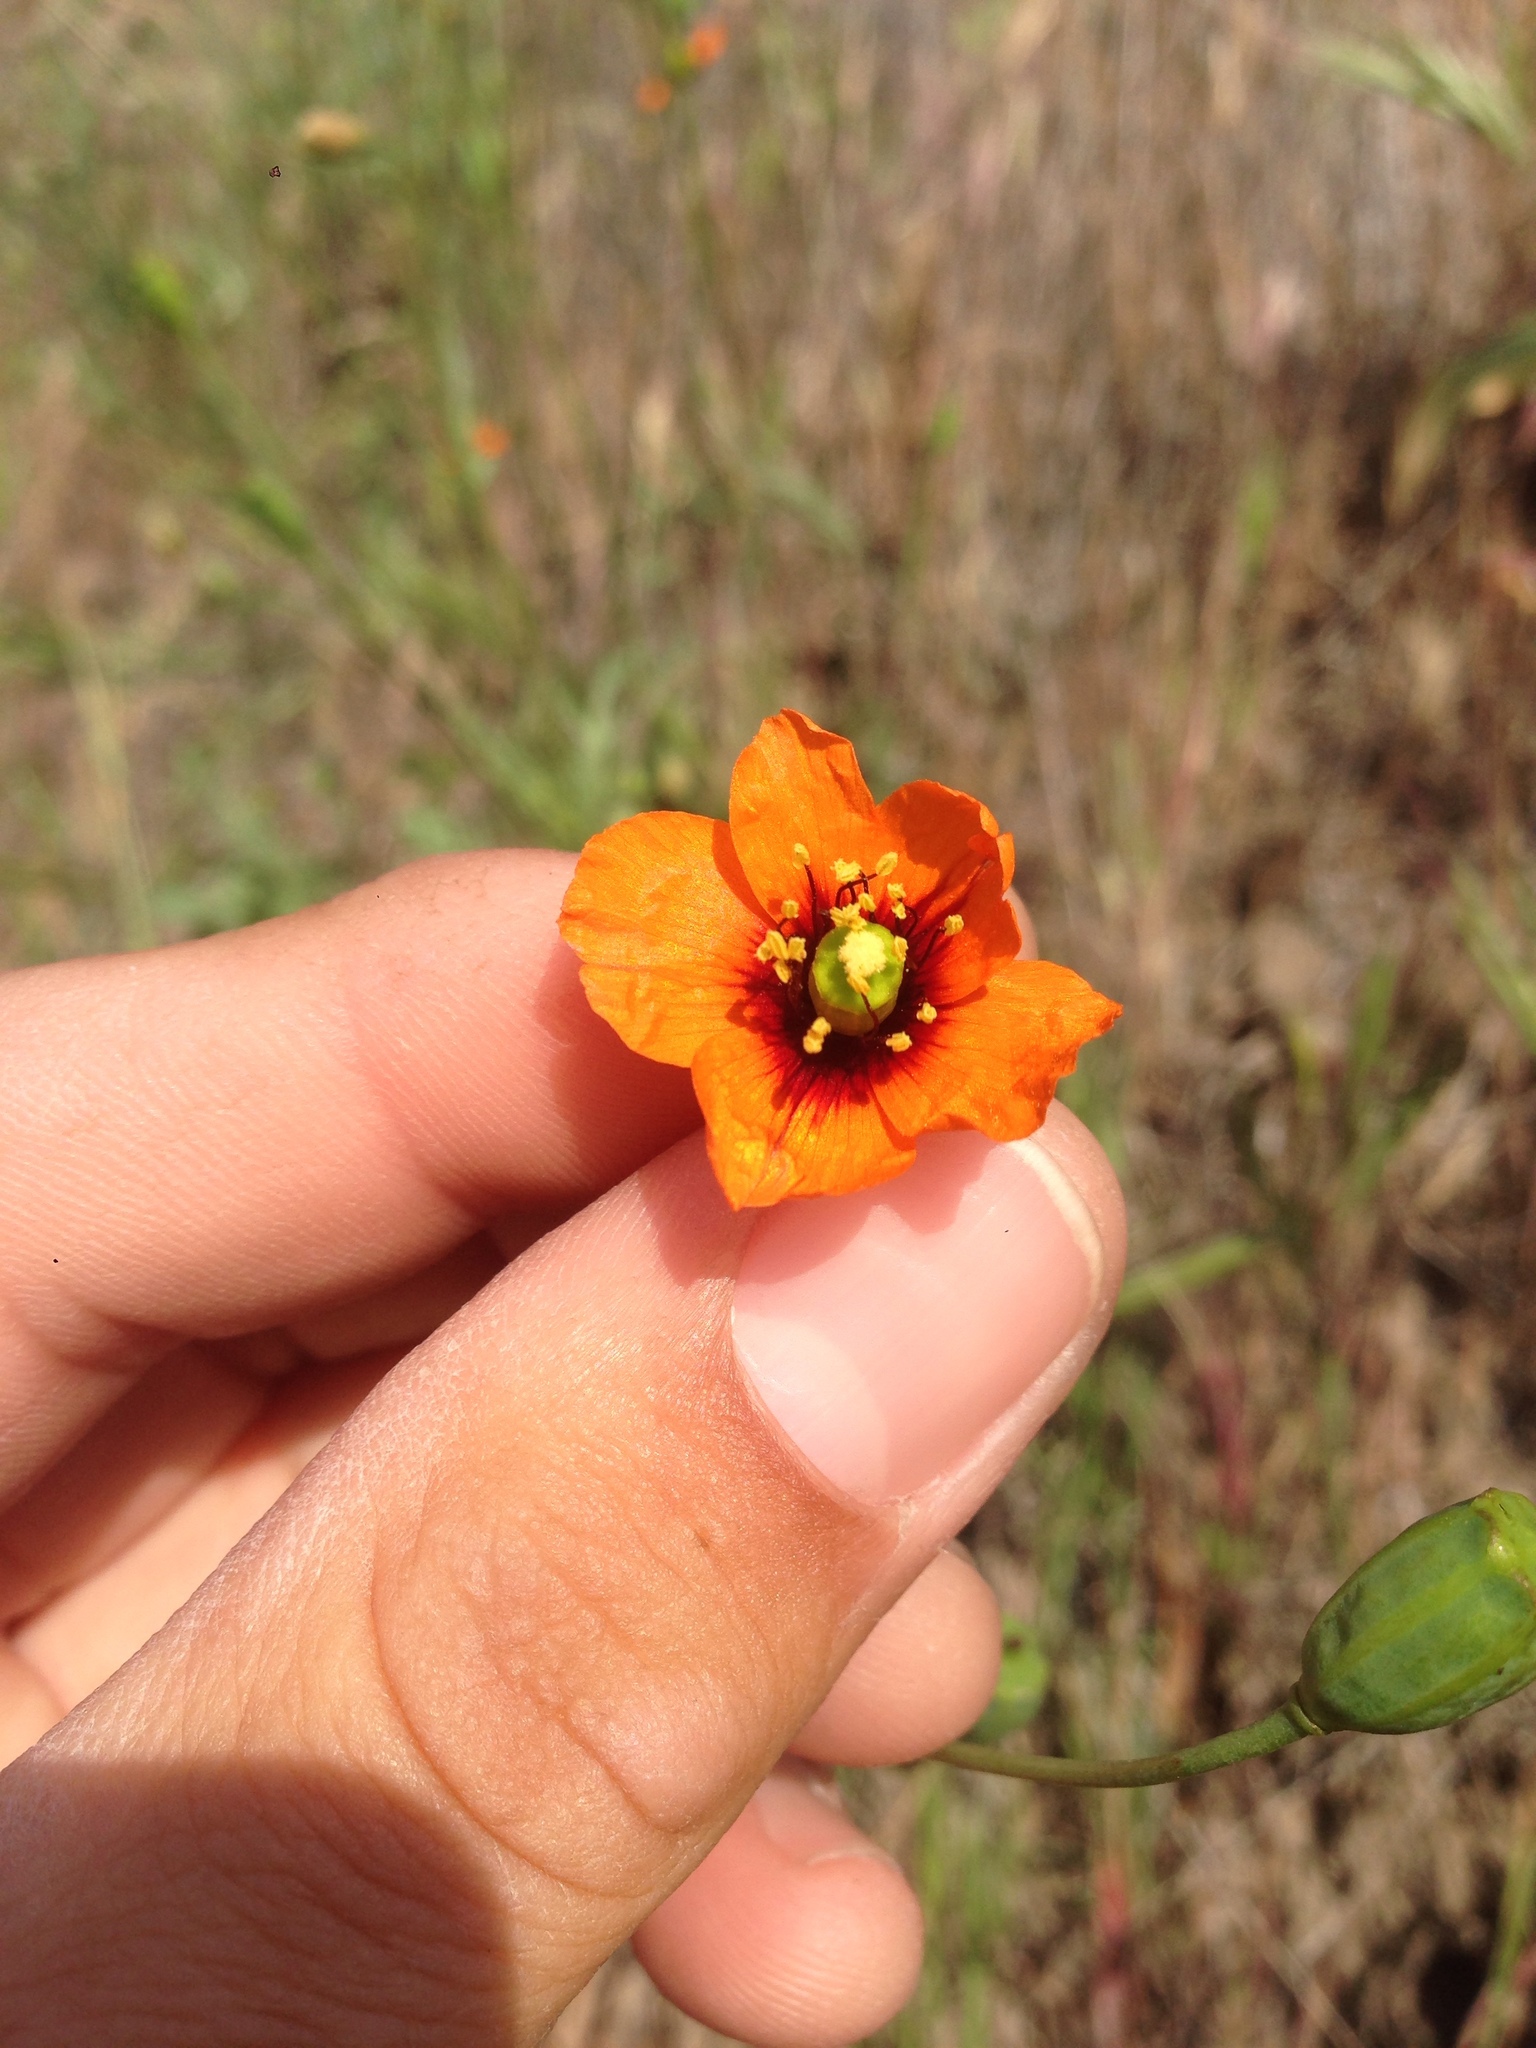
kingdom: Plantae
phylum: Tracheophyta
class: Magnoliopsida
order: Ranunculales
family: Papaveraceae
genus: Stylomecon
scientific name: Stylomecon heterophylla
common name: Flaming-poppy
